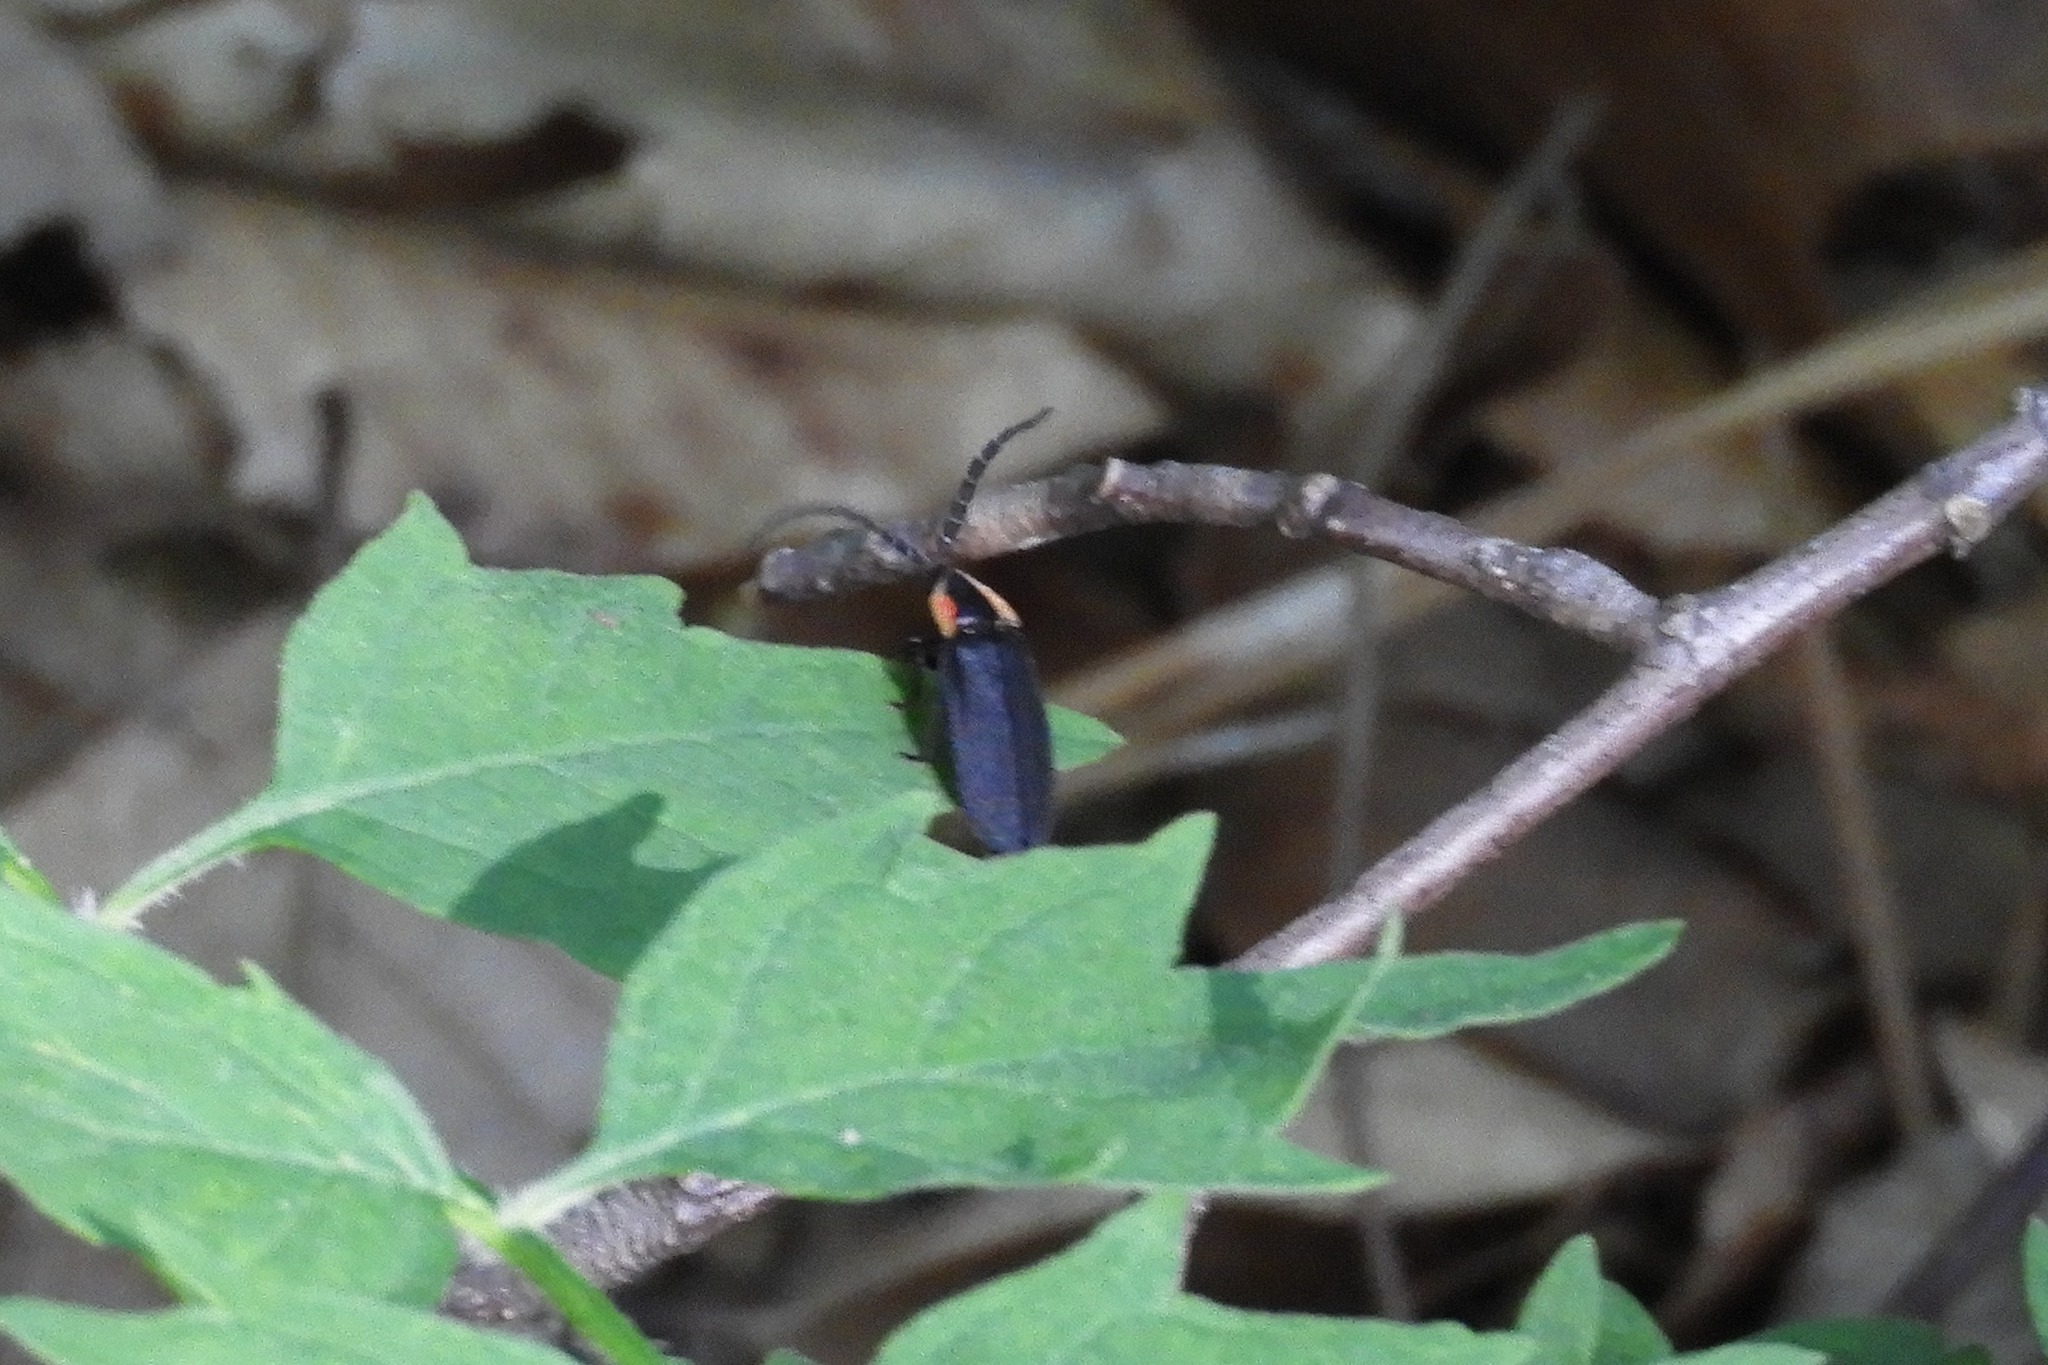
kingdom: Animalia
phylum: Arthropoda
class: Insecta
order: Coleoptera
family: Lampyridae
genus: Lucidota
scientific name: Lucidota atra
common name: Black firefly
